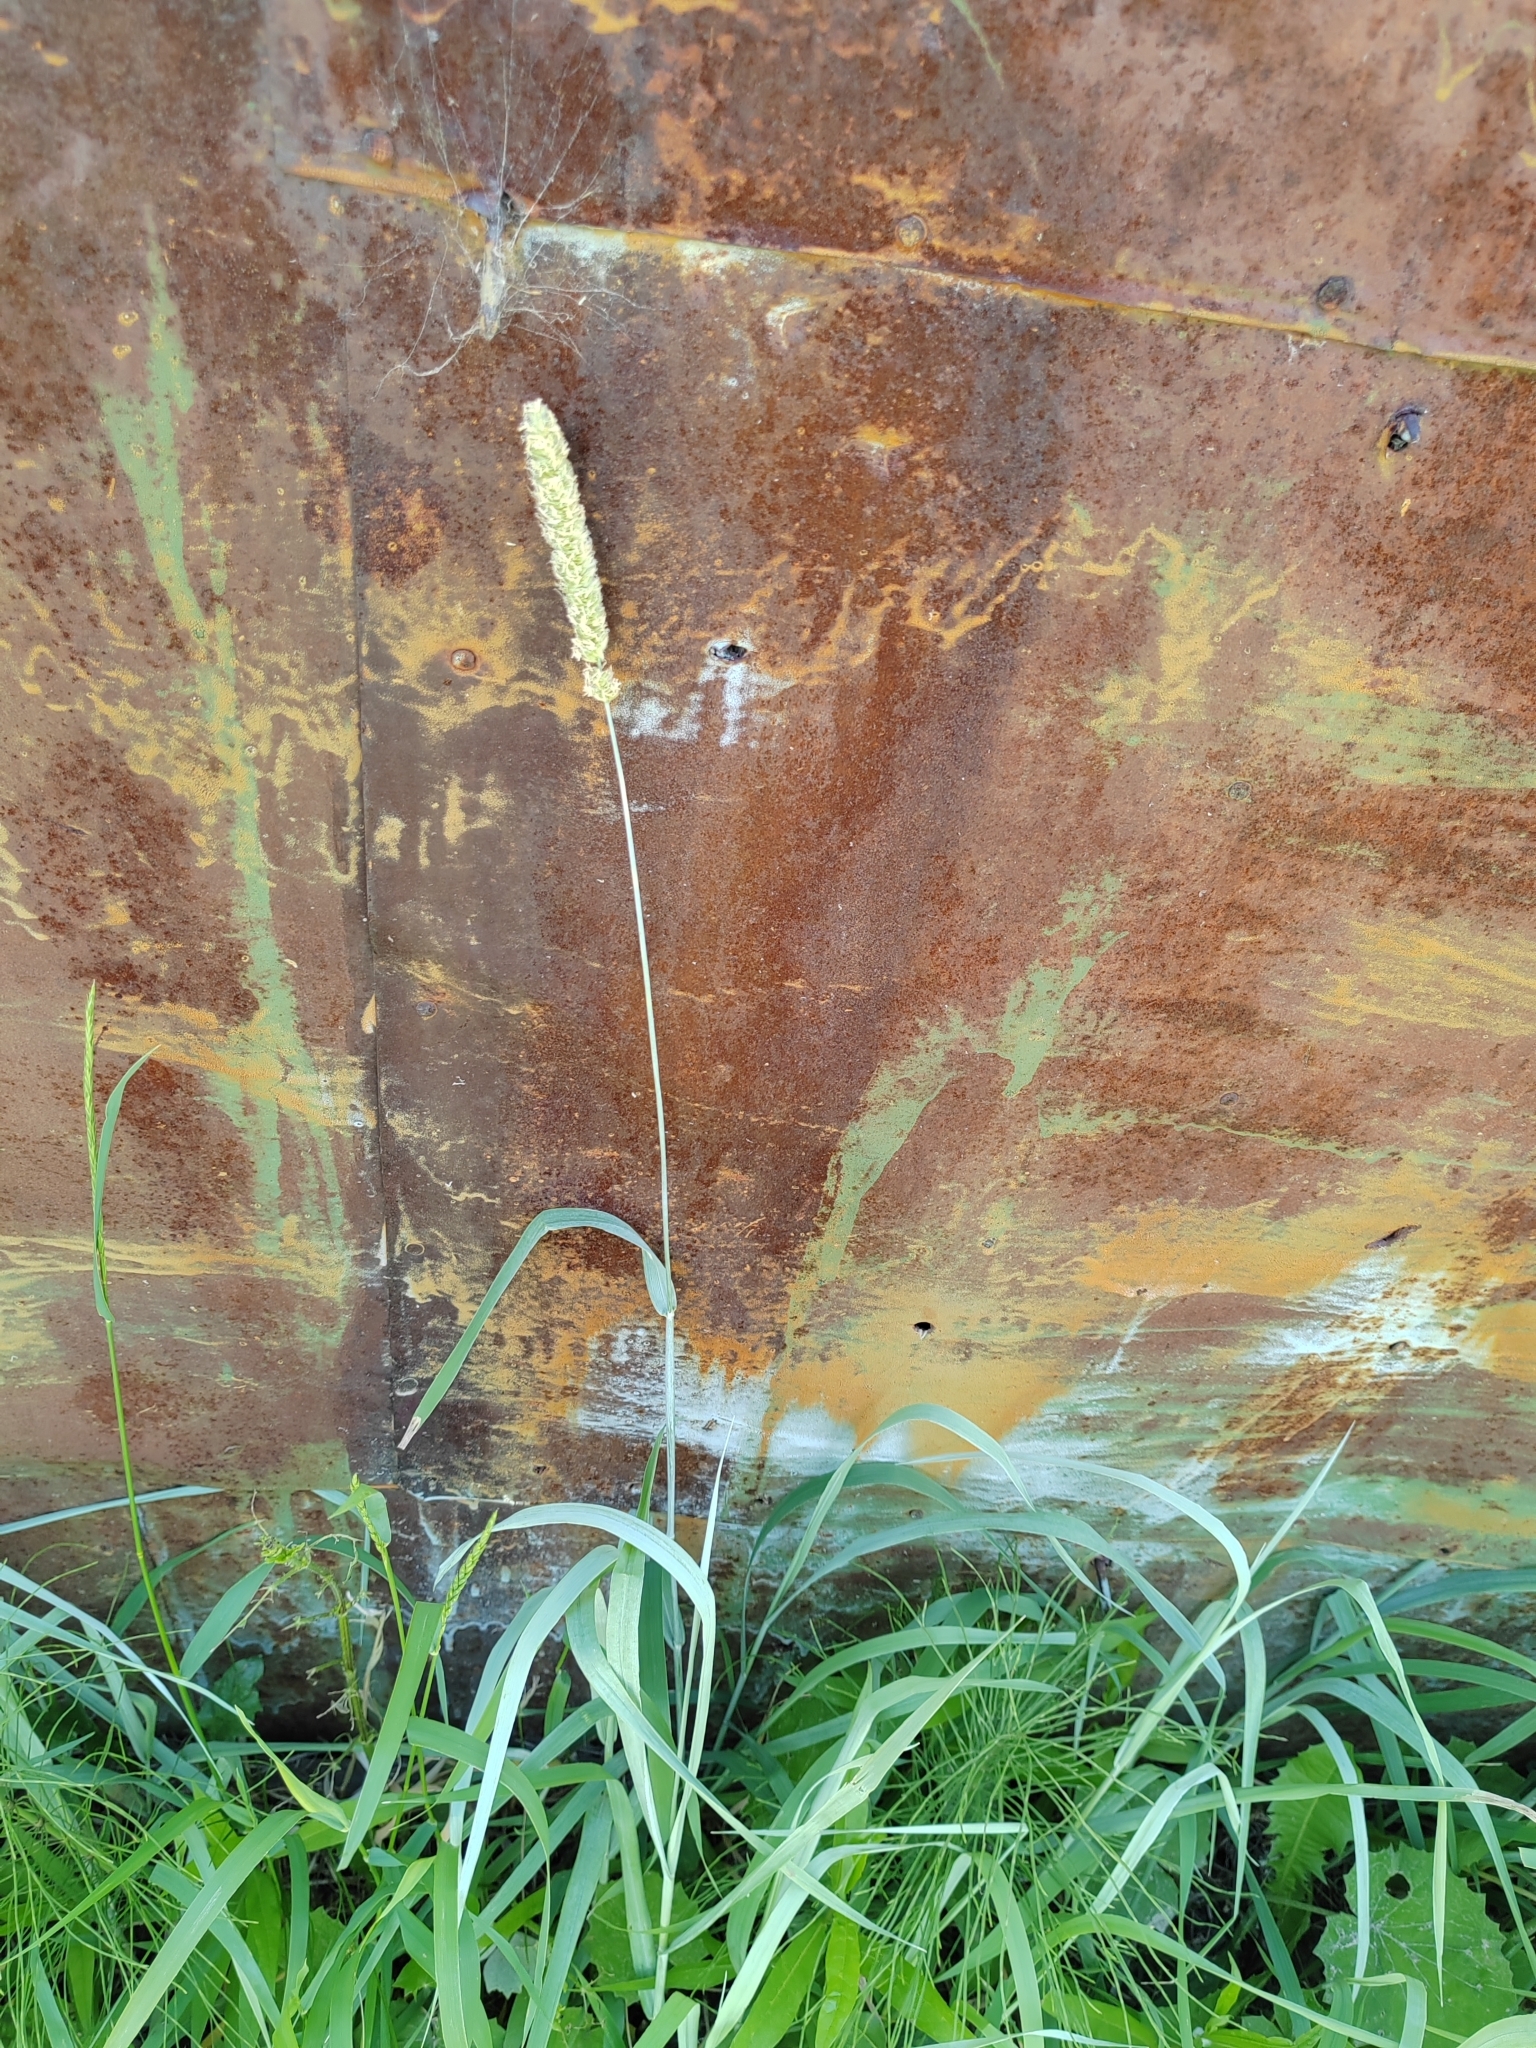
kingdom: Plantae
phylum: Tracheophyta
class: Liliopsida
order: Poales
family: Poaceae
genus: Phleum
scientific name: Phleum pratense
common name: Timothy grass
